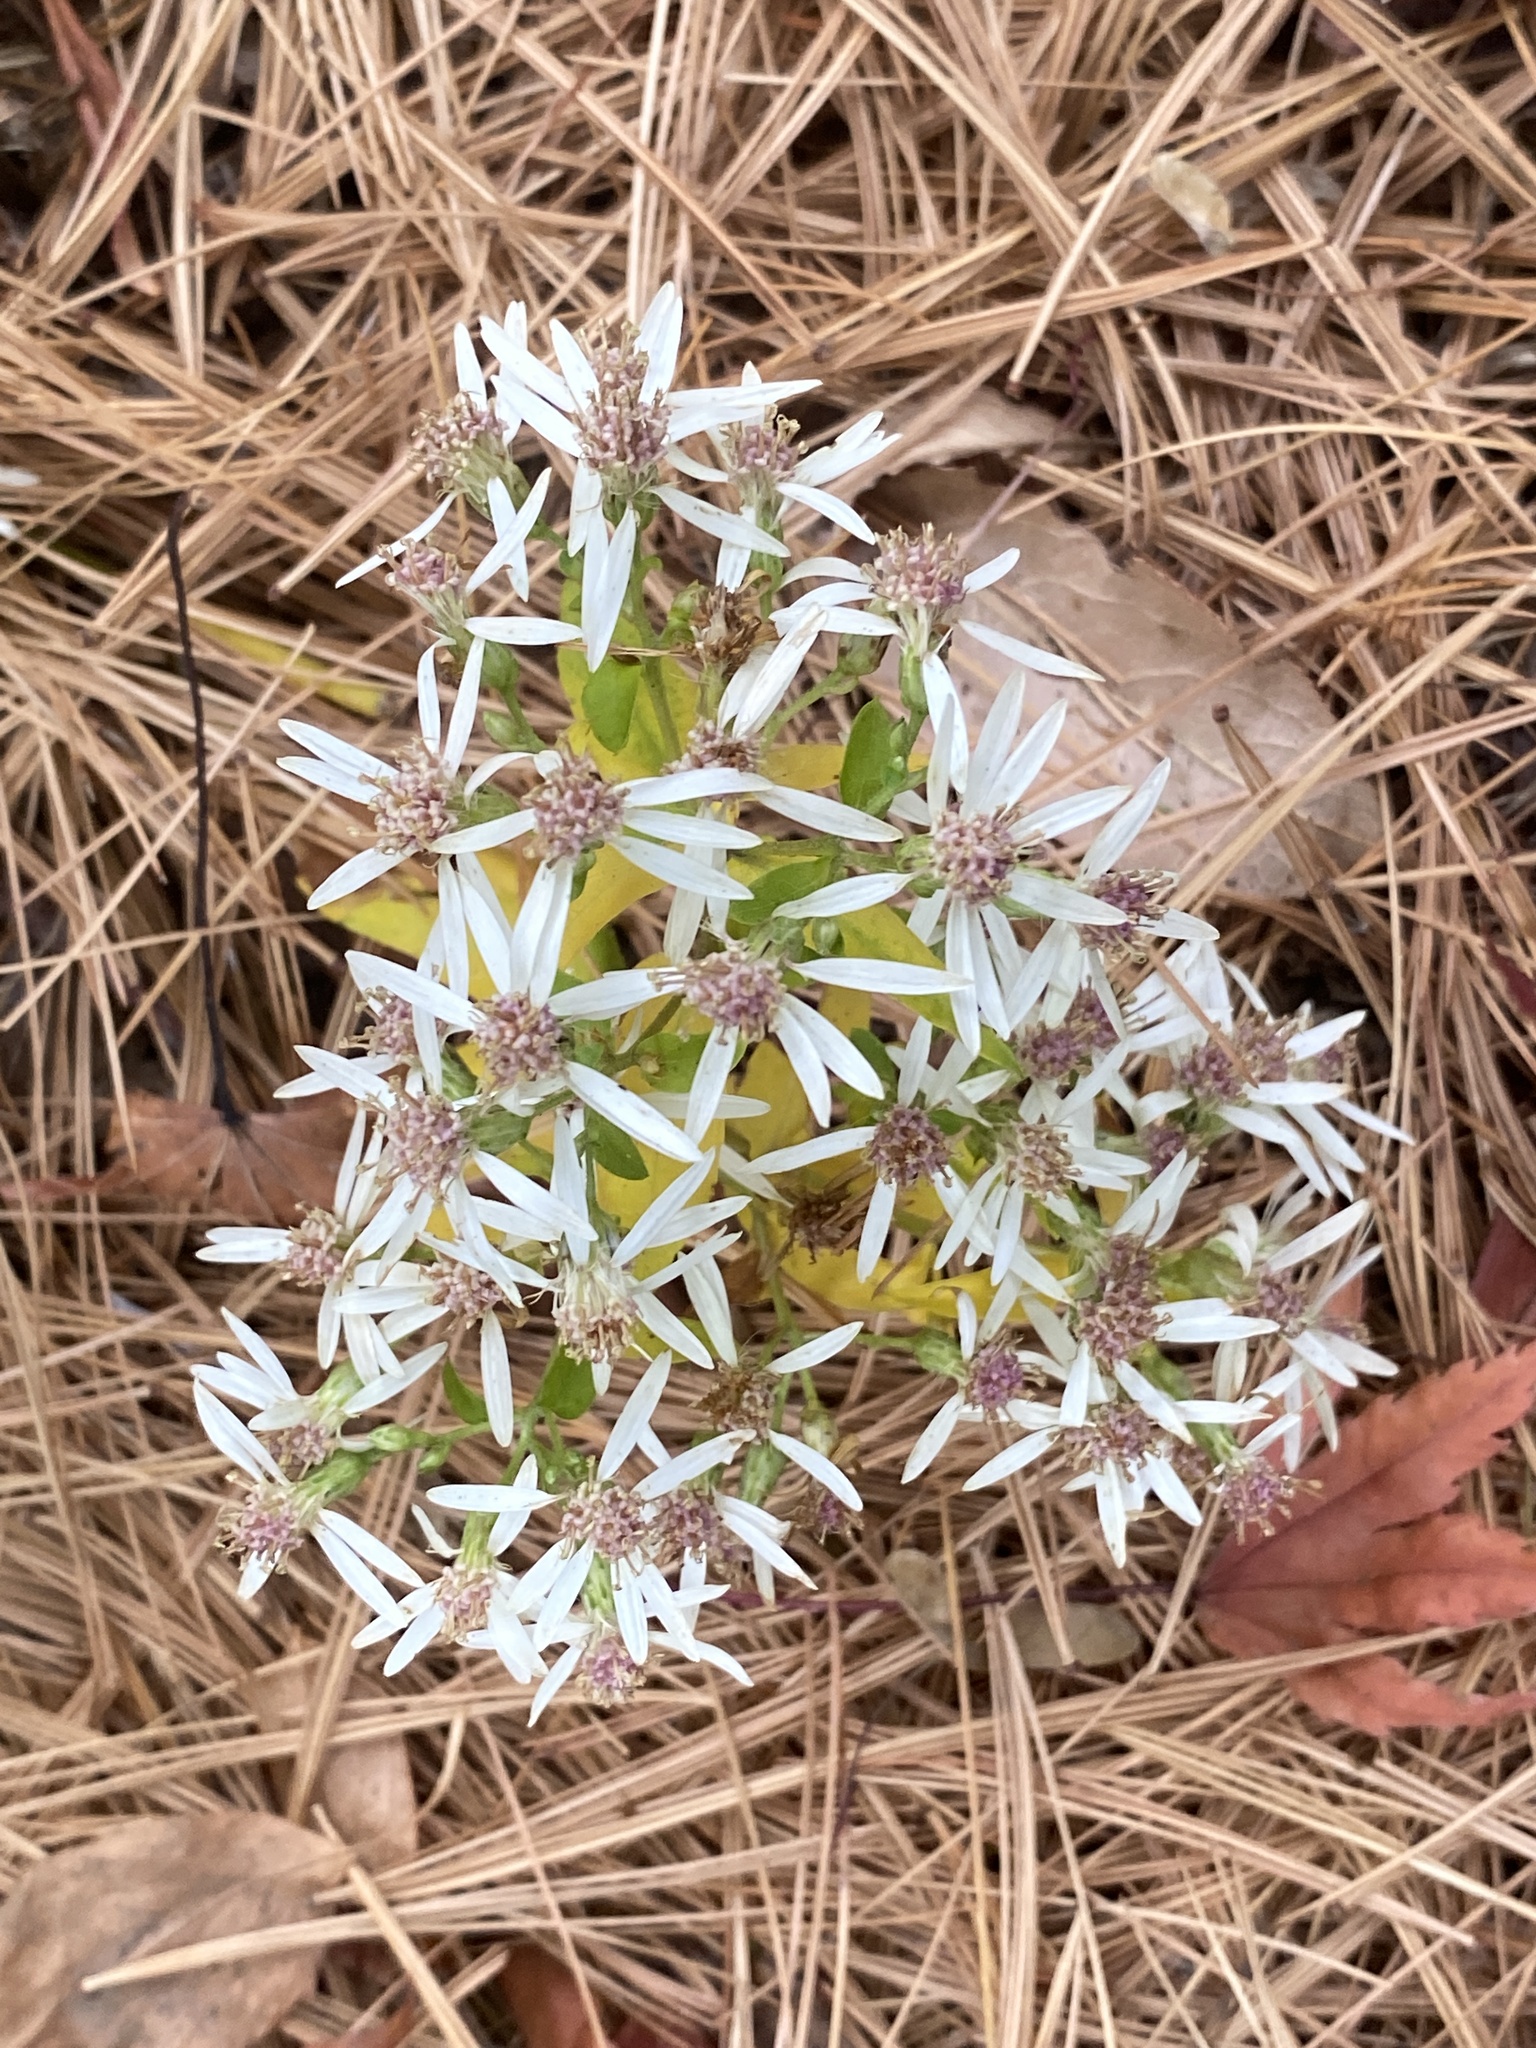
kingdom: Plantae
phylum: Tracheophyta
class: Magnoliopsida
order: Asterales
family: Asteraceae
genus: Eurybia
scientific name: Eurybia divaricata
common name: White wood aster
